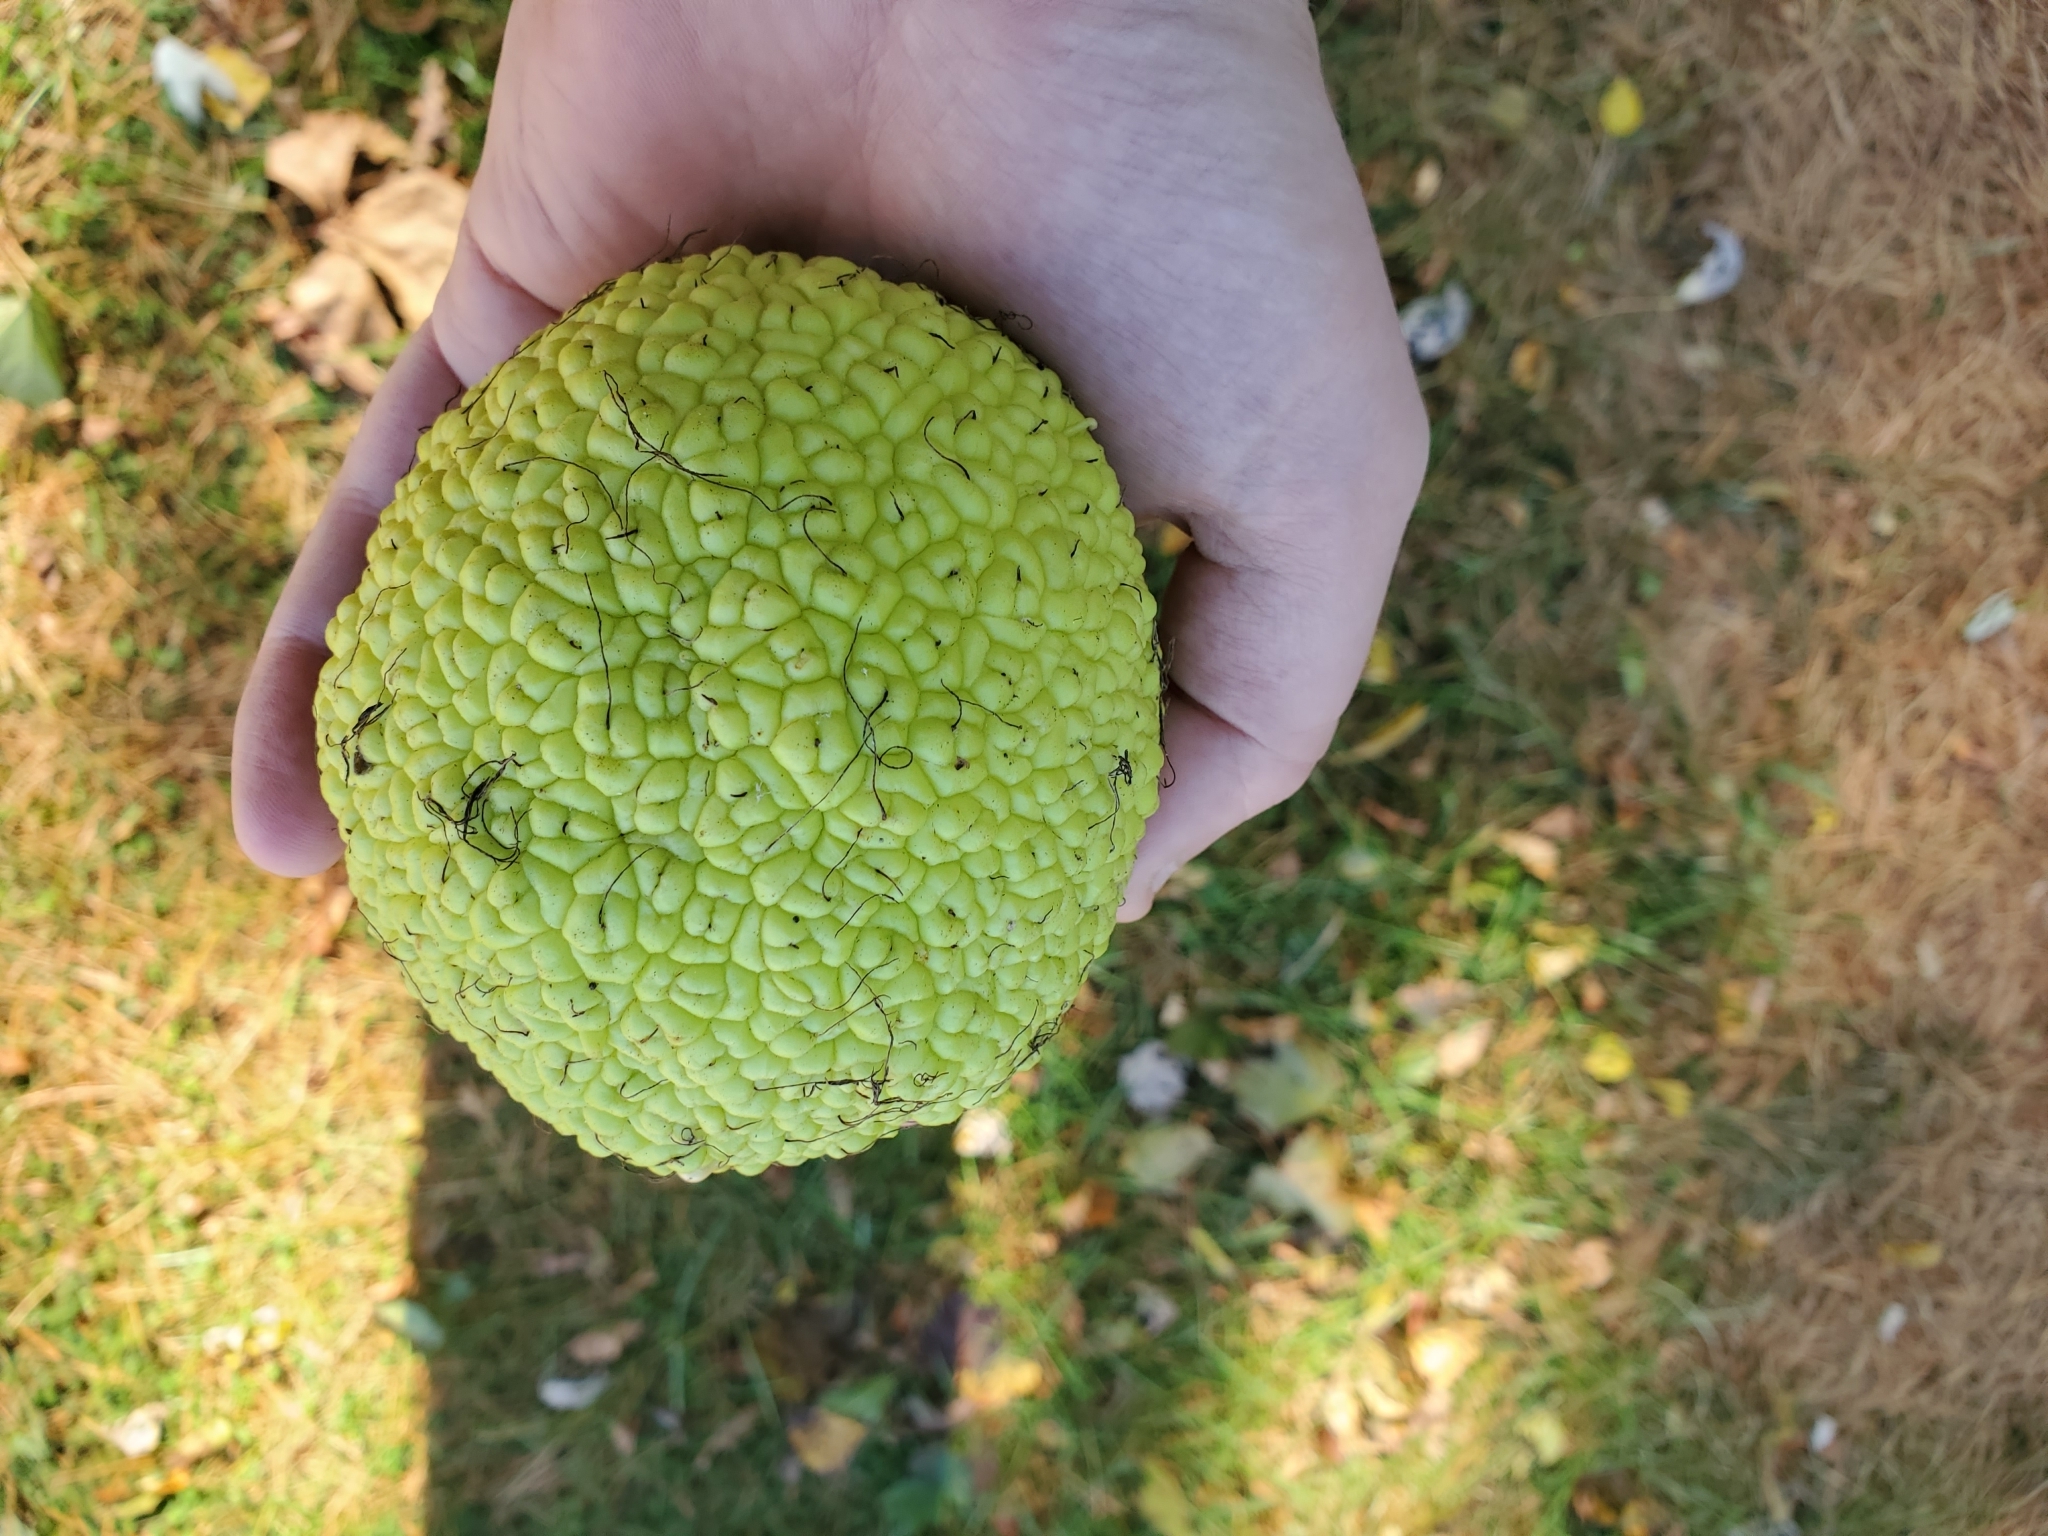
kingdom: Plantae
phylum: Tracheophyta
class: Magnoliopsida
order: Rosales
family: Moraceae
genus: Maclura
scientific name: Maclura pomifera
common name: Osage-orange
